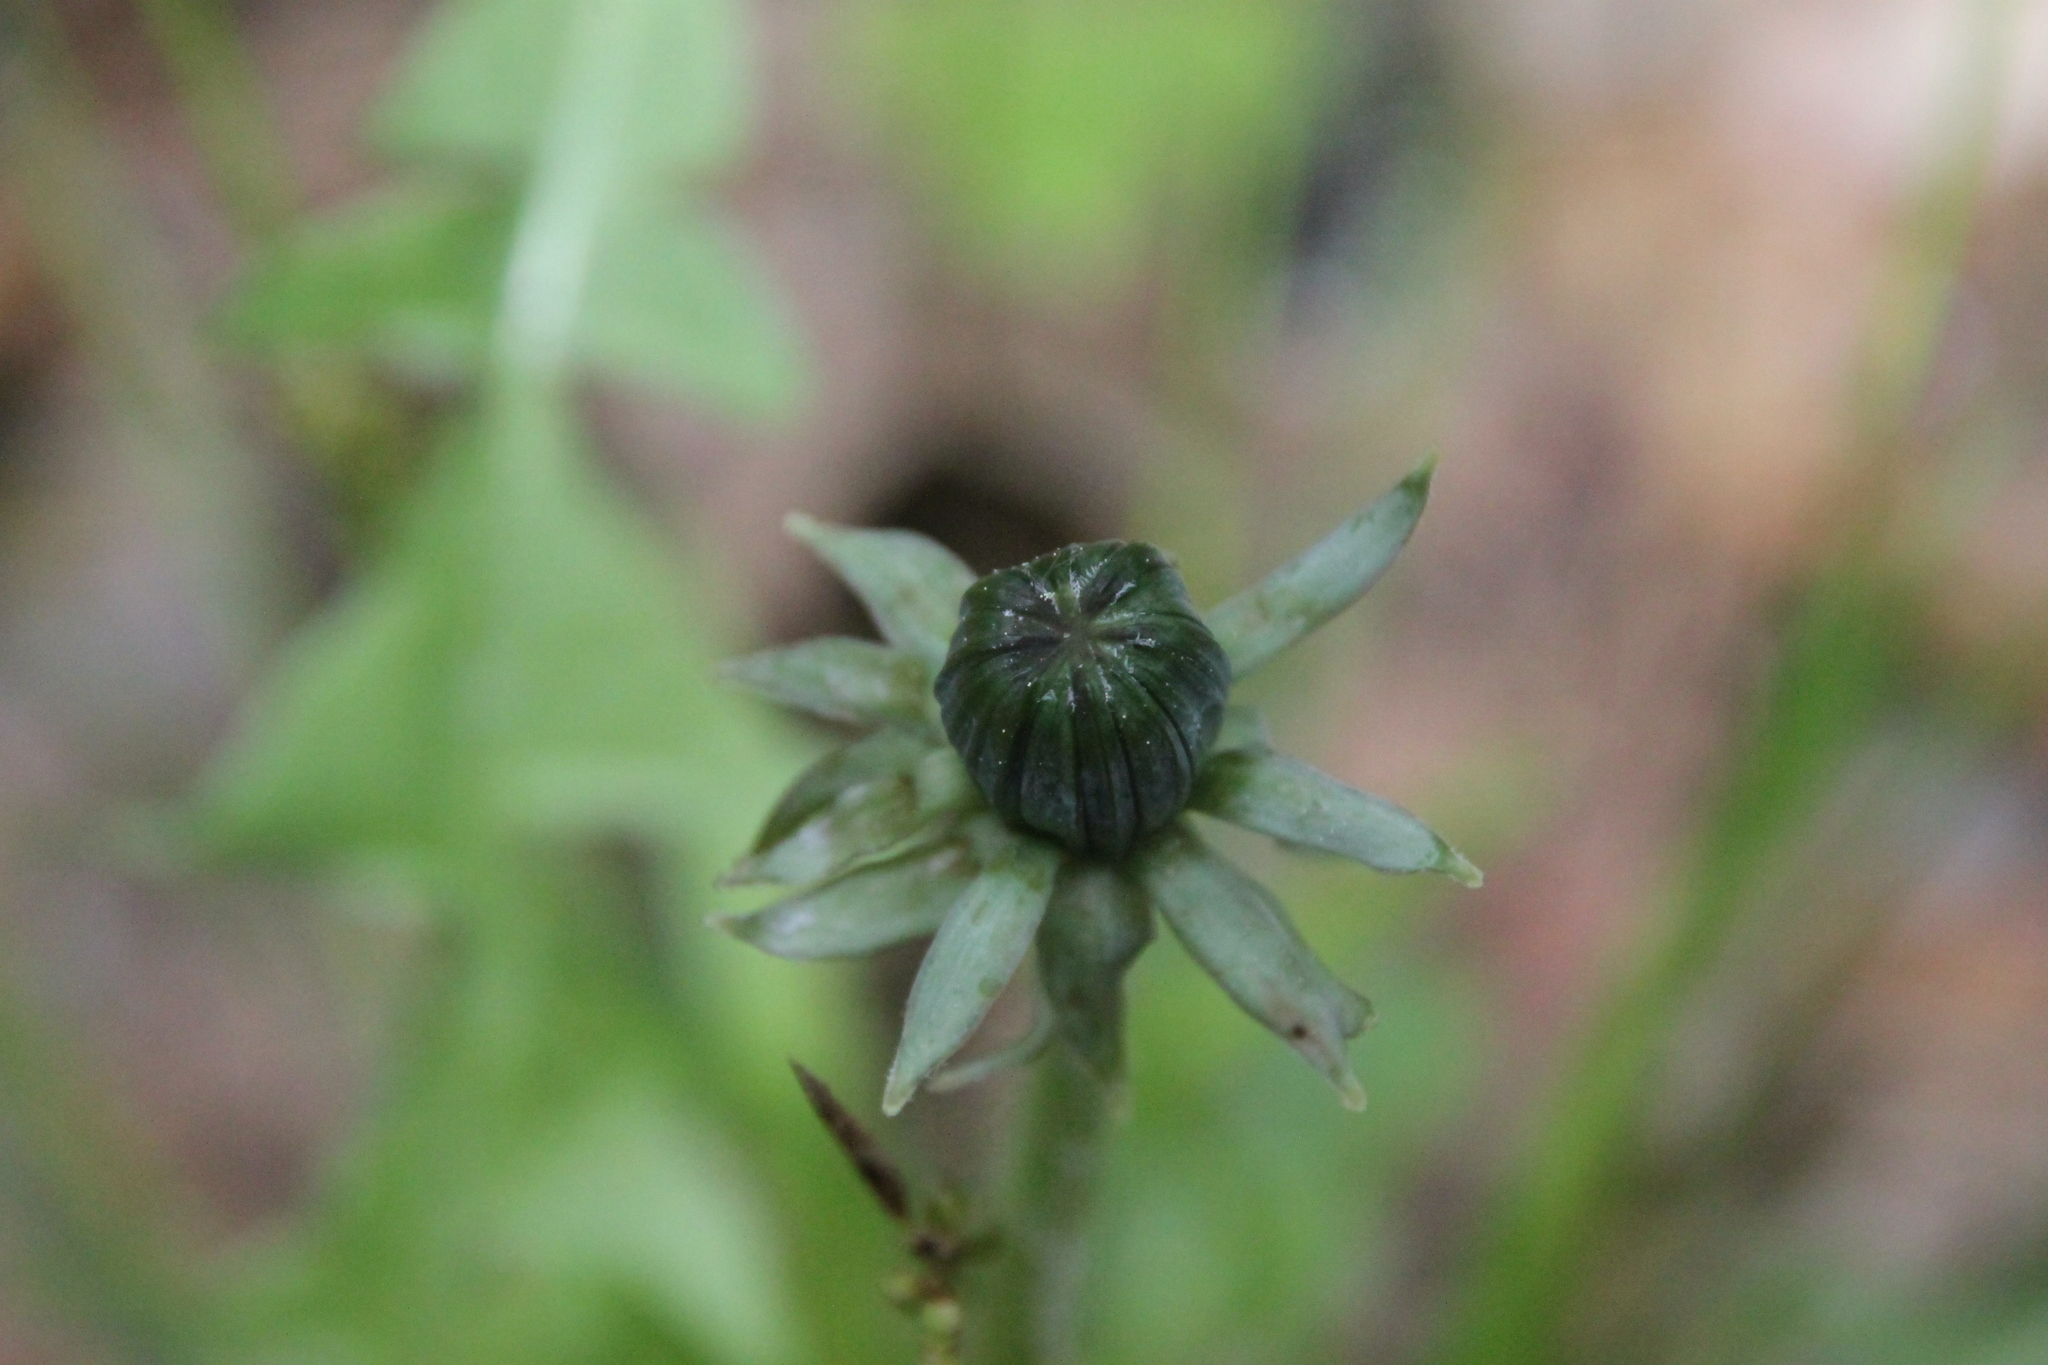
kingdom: Plantae
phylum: Tracheophyta
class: Magnoliopsida
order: Asterales
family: Asteraceae
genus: Taraxacum
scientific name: Taraxacum officinale
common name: Common dandelion
